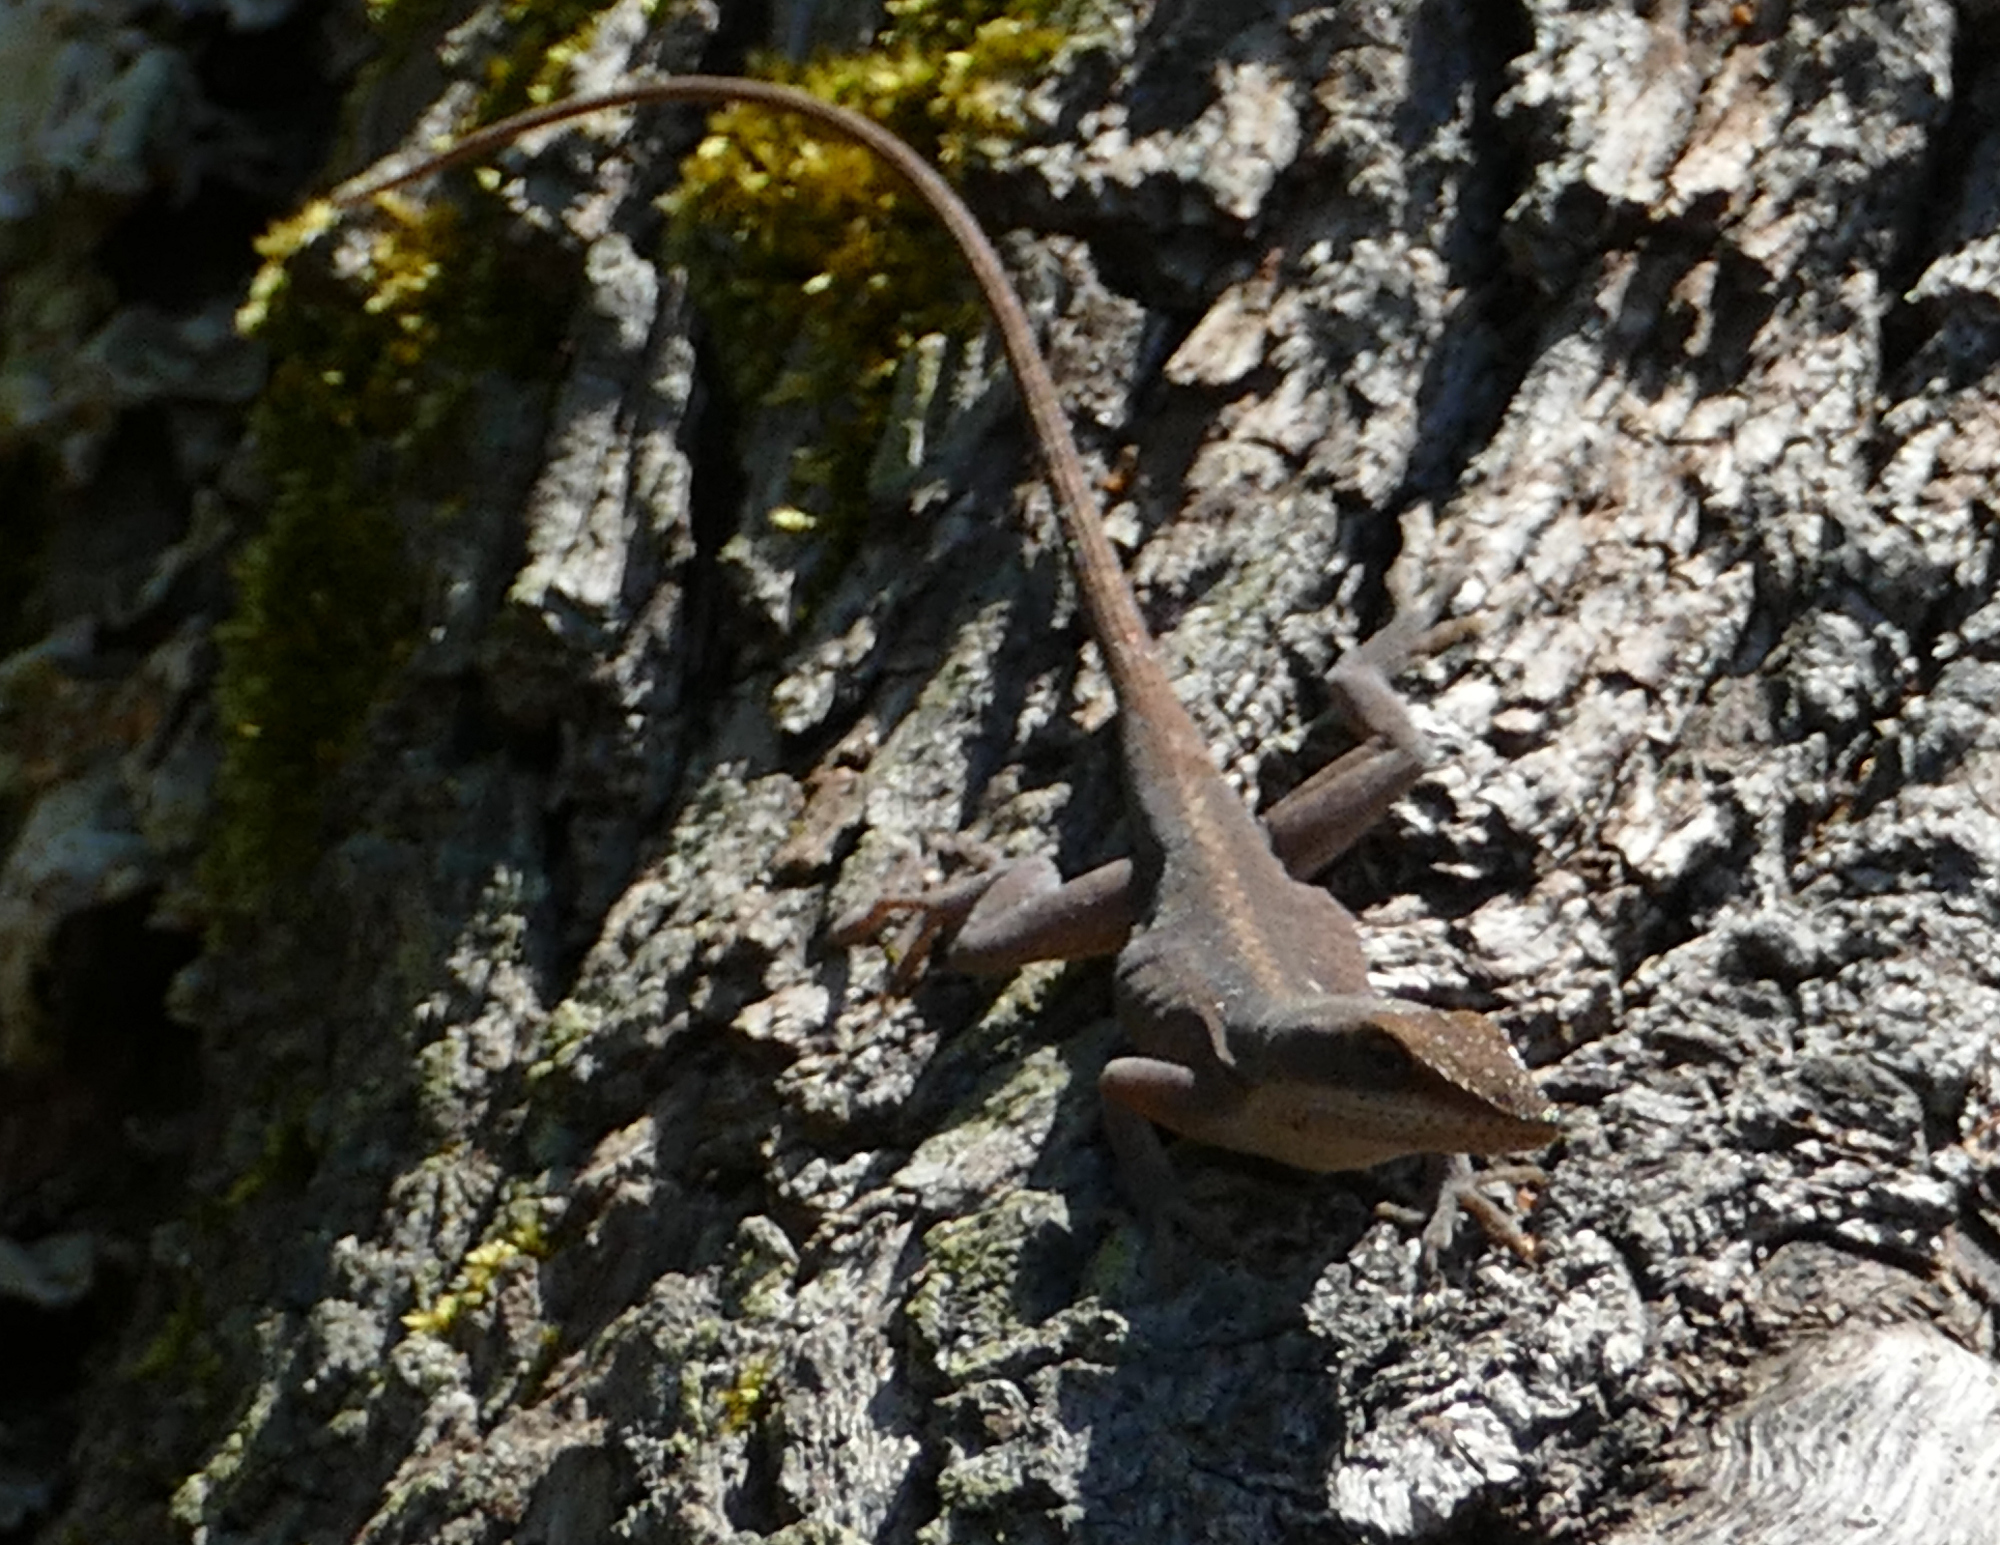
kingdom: Animalia
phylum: Chordata
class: Squamata
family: Dactyloidae
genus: Anolis
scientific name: Anolis carolinensis
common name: Green anole
